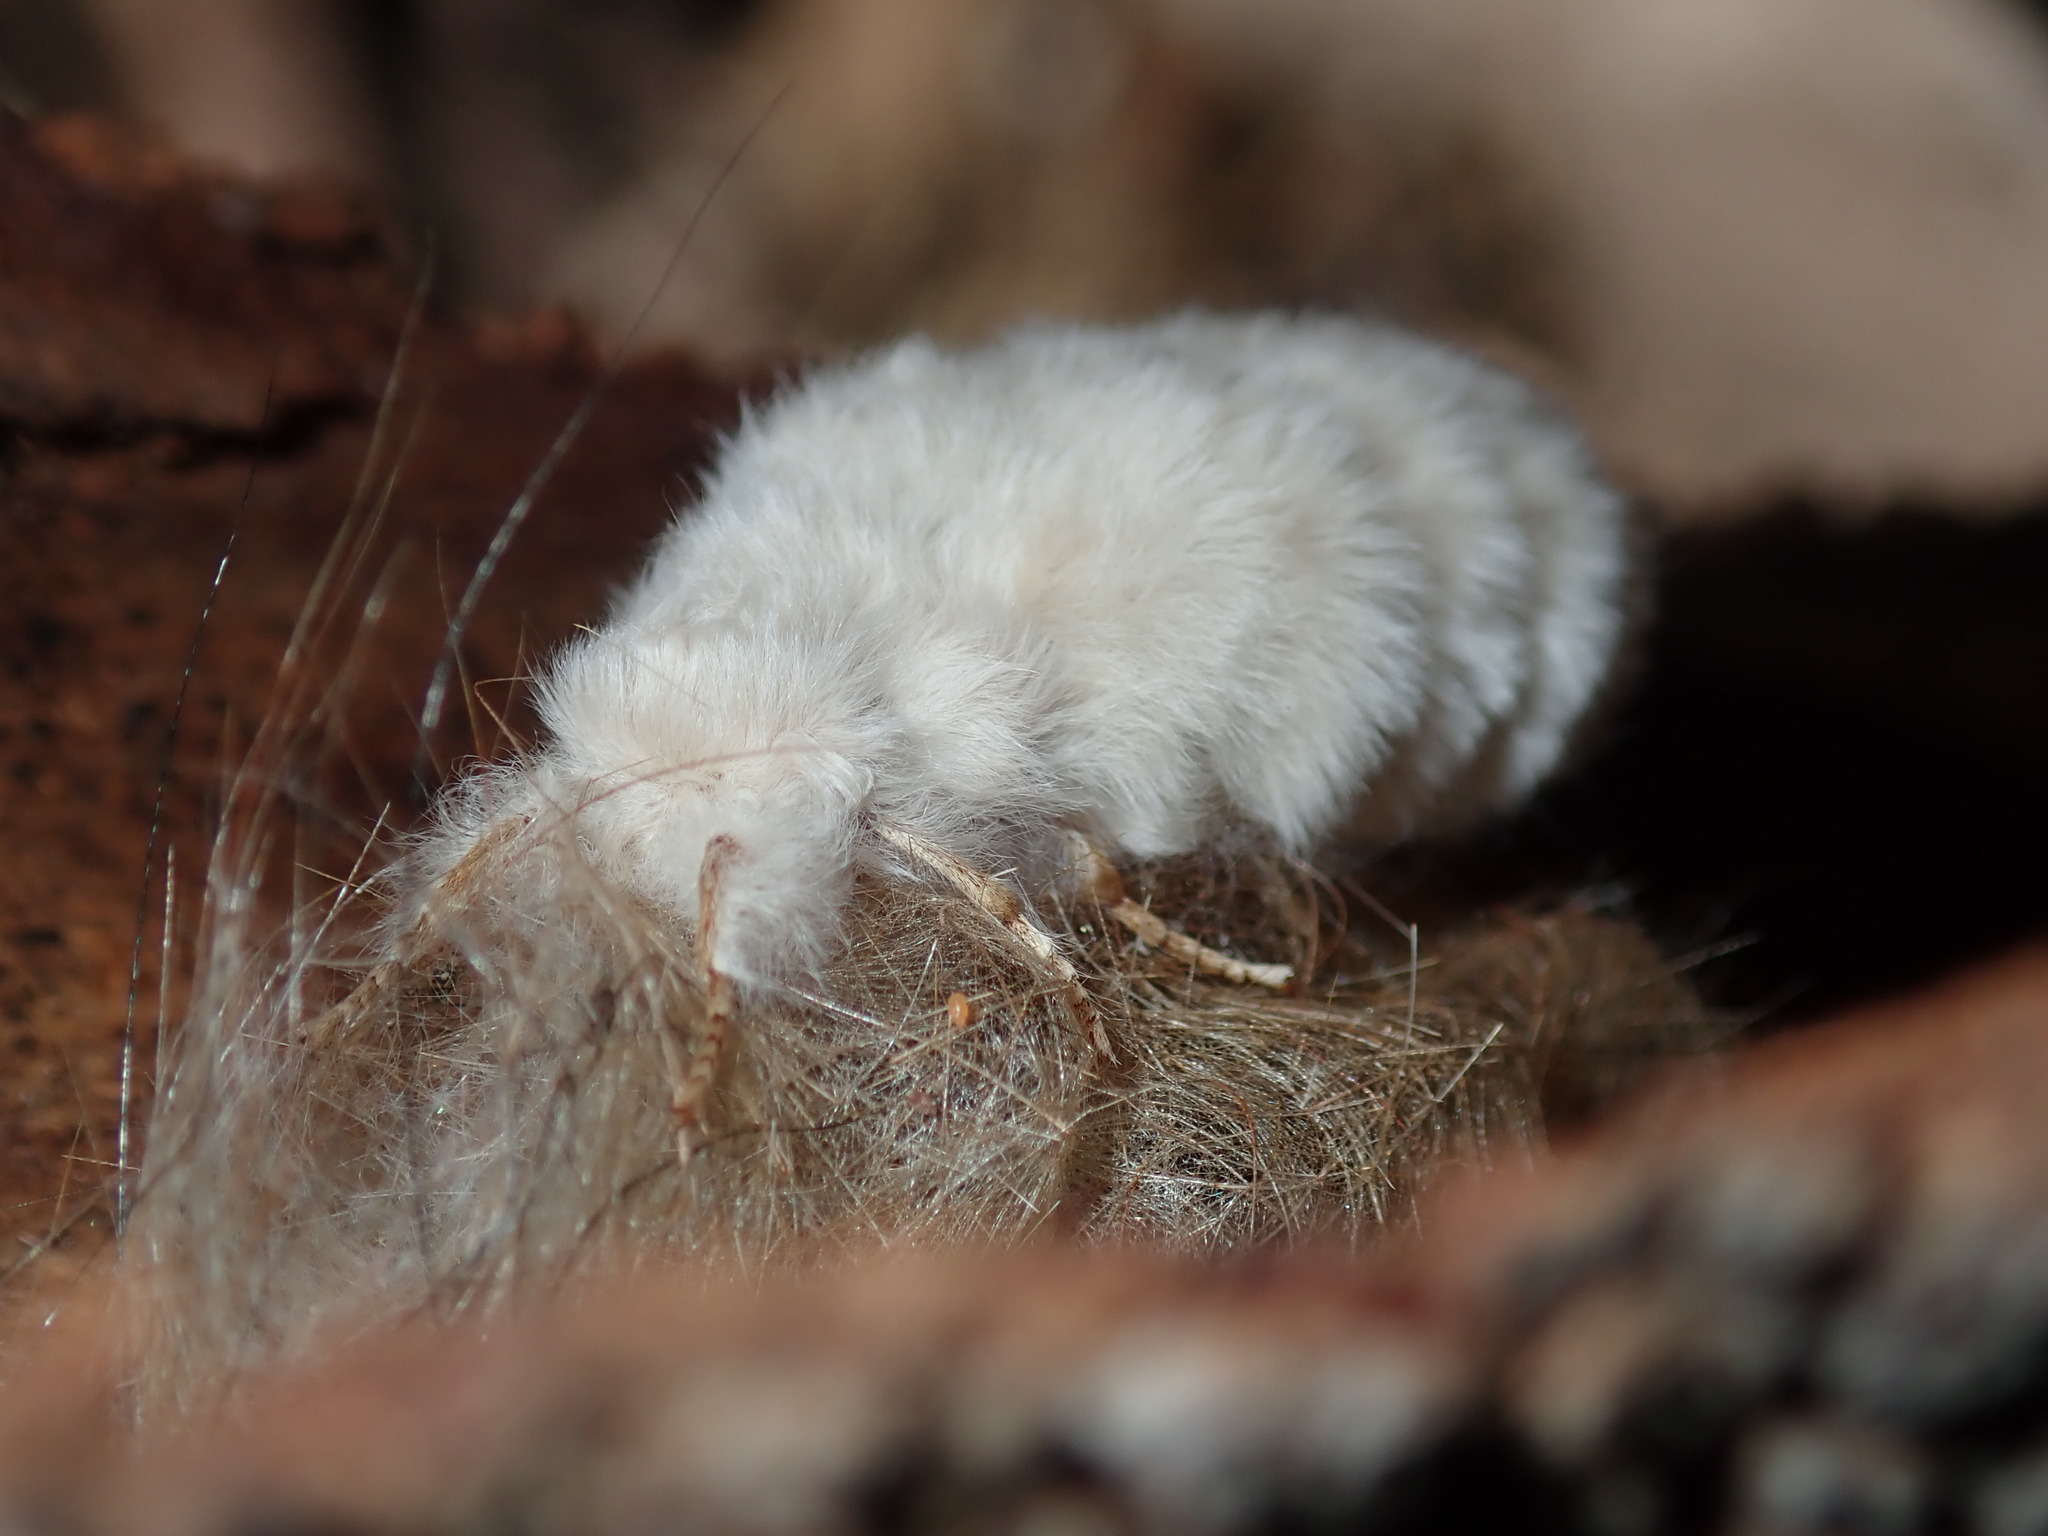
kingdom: Animalia
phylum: Arthropoda
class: Insecta
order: Lepidoptera
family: Erebidae
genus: Iropoca
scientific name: Iropoca rotundata
